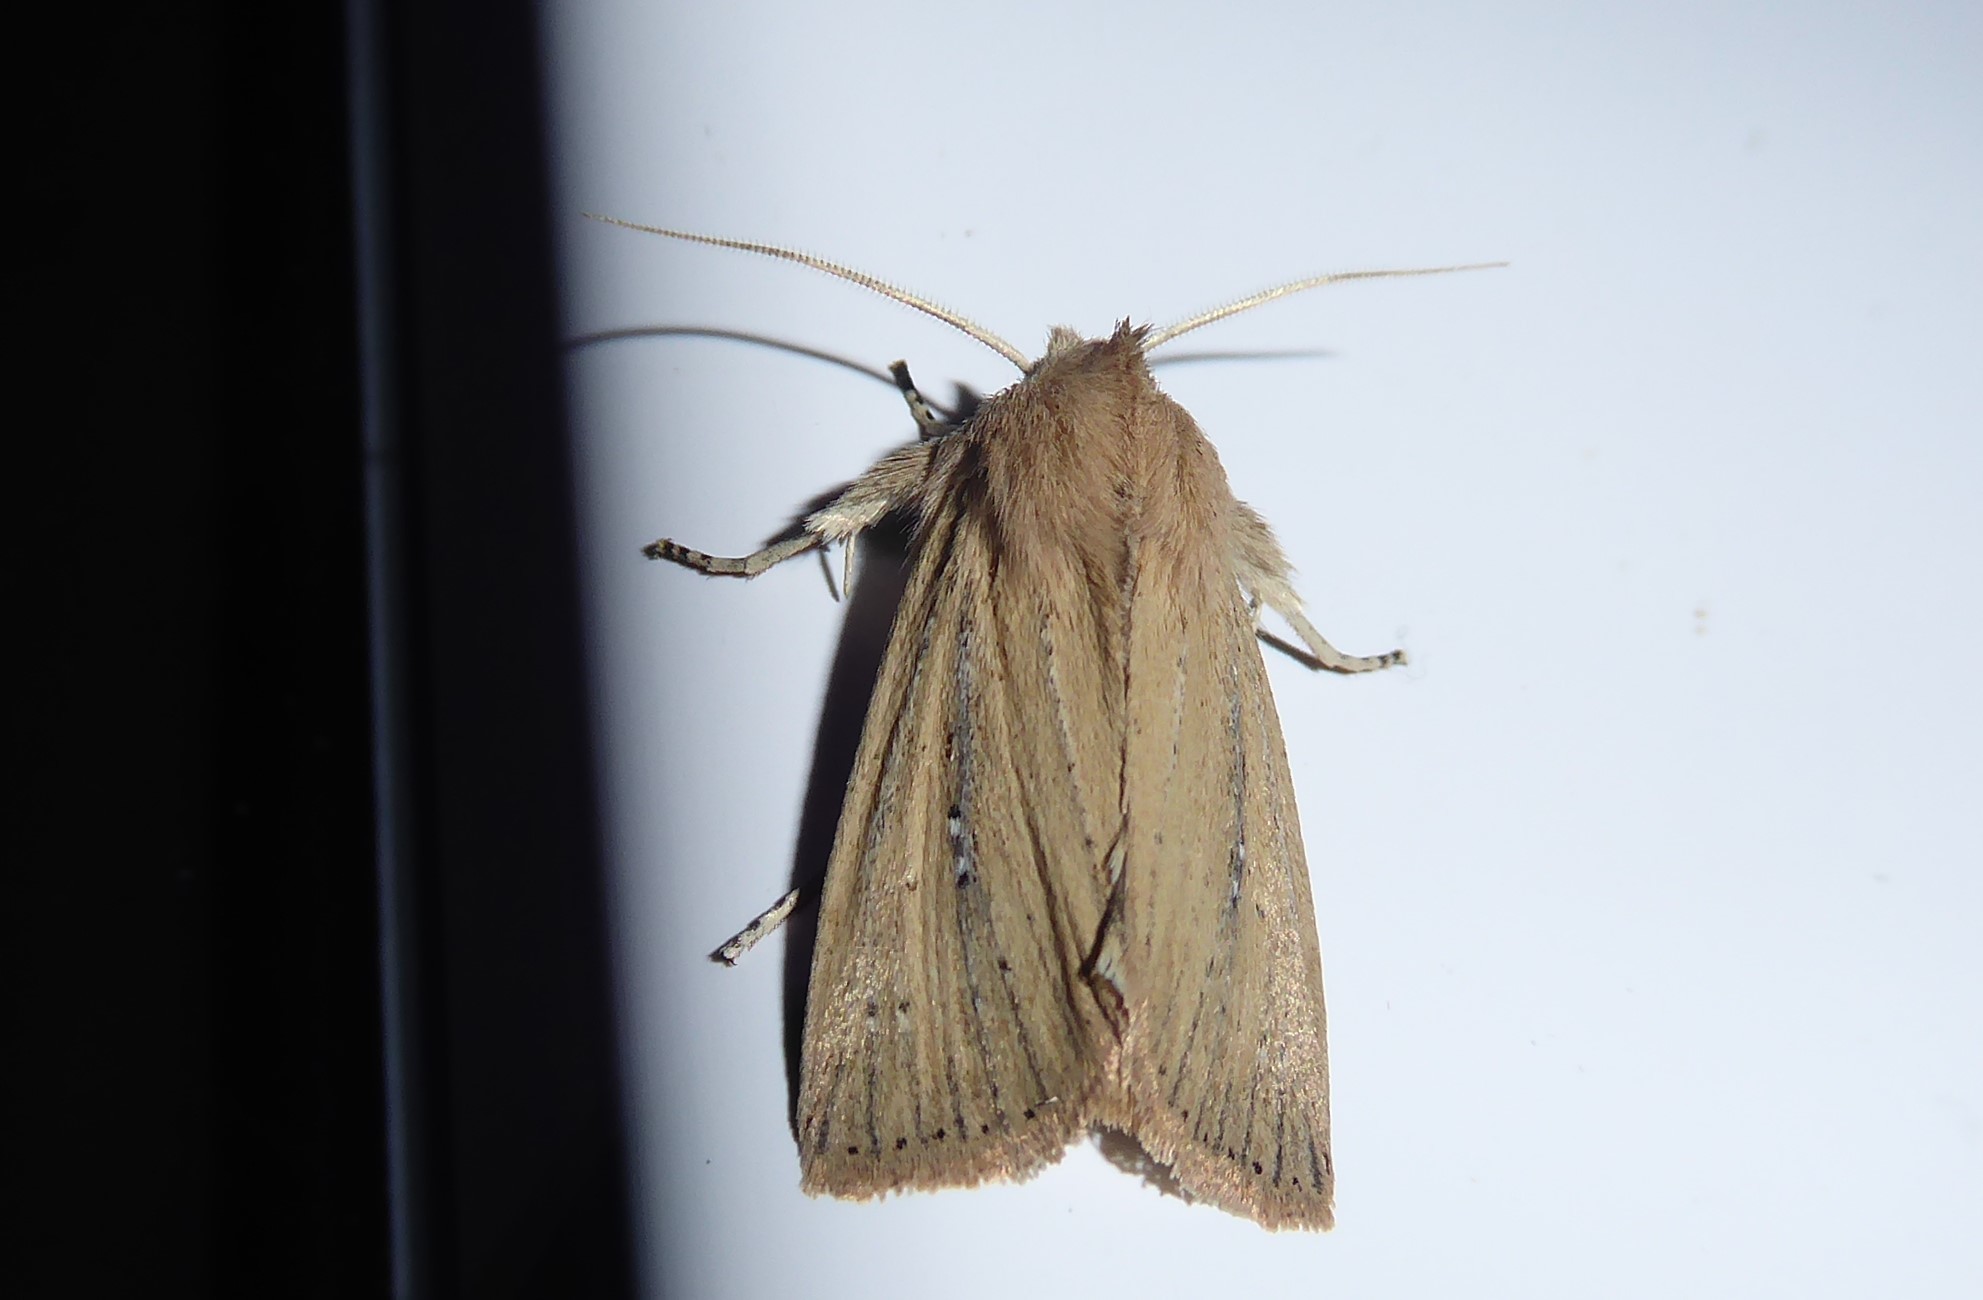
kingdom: Animalia
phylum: Arthropoda
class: Insecta
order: Lepidoptera
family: Noctuidae
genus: Ichneutica
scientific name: Ichneutica
